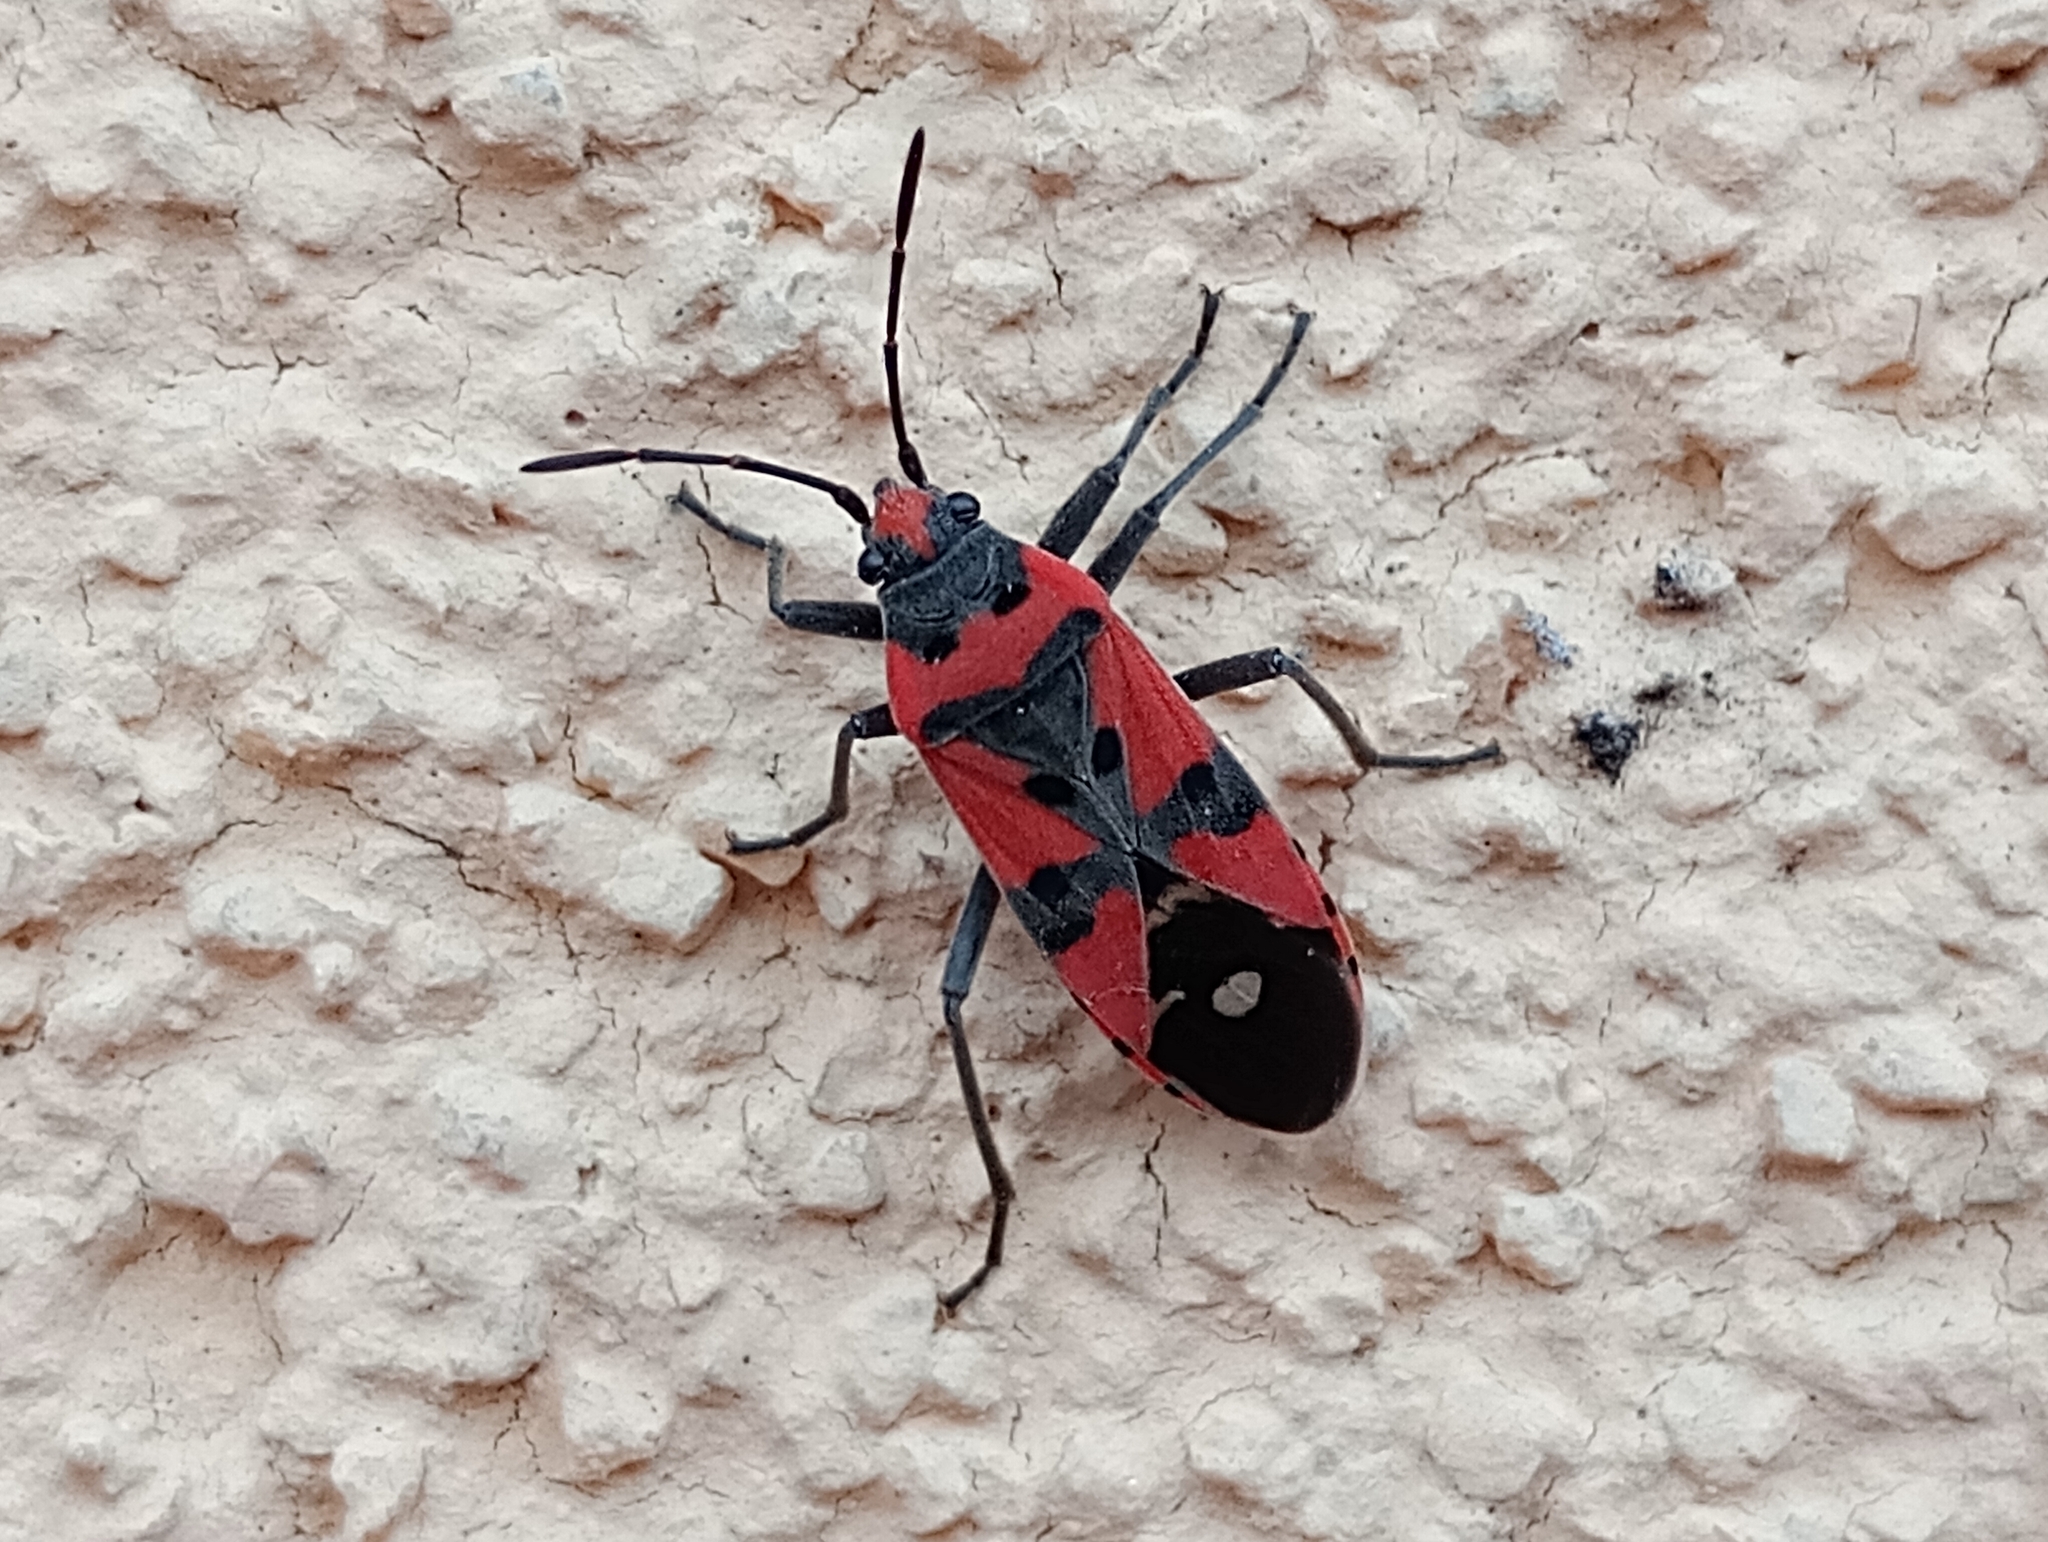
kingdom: Animalia
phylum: Arthropoda
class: Insecta
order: Hemiptera
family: Lygaeidae
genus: Lygaeus
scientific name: Lygaeus equestris
